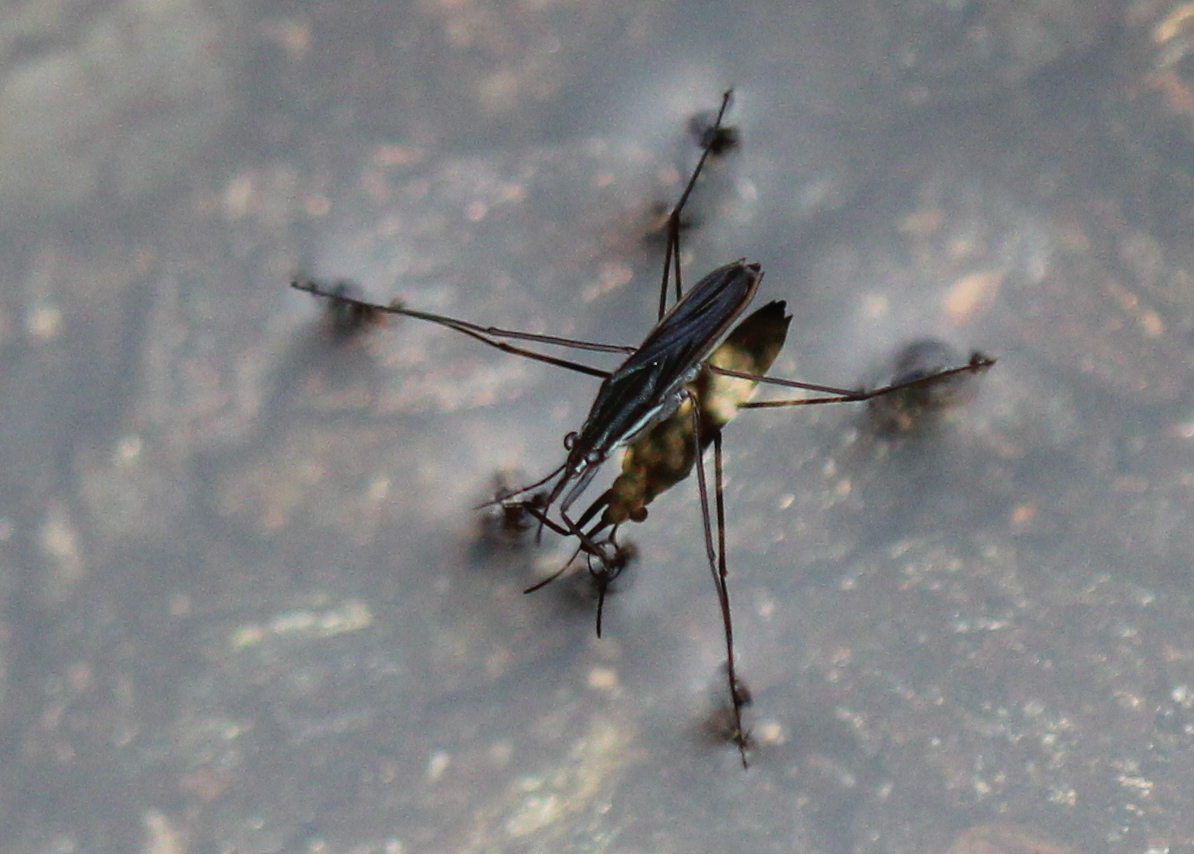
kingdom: Animalia
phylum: Arthropoda
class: Insecta
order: Hemiptera
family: Gerridae
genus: Gerris
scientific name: Gerris
